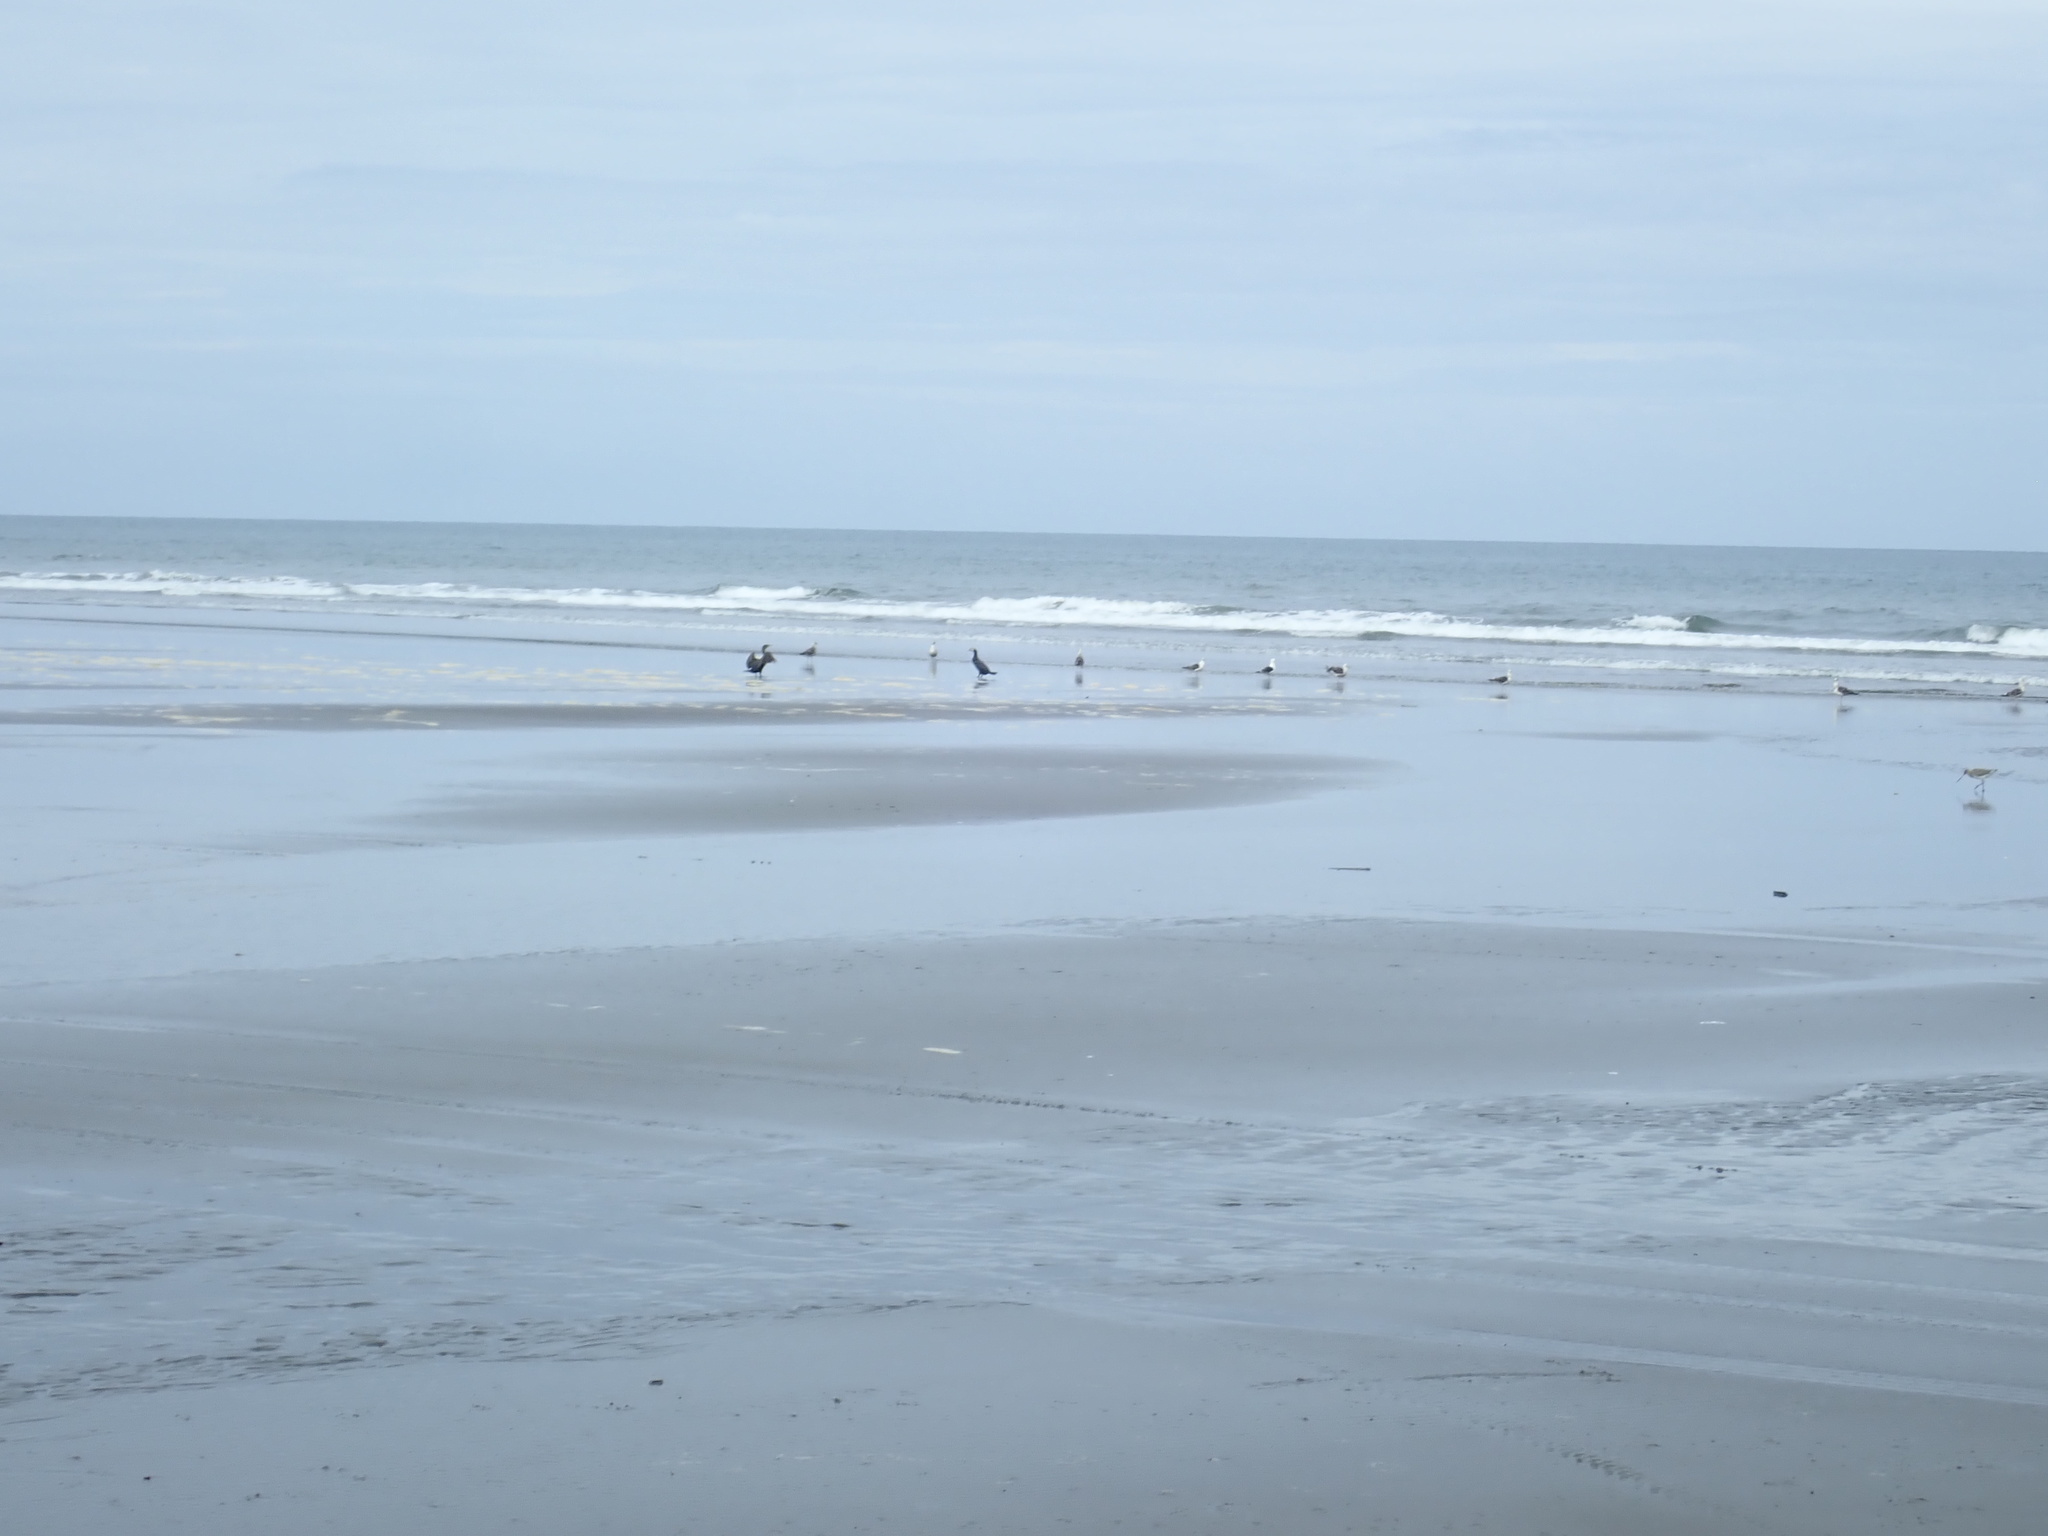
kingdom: Animalia
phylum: Chordata
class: Aves
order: Suliformes
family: Phalacrocoracidae
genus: Phalacrocorax
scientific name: Phalacrocorax carbo
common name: Great cormorant
